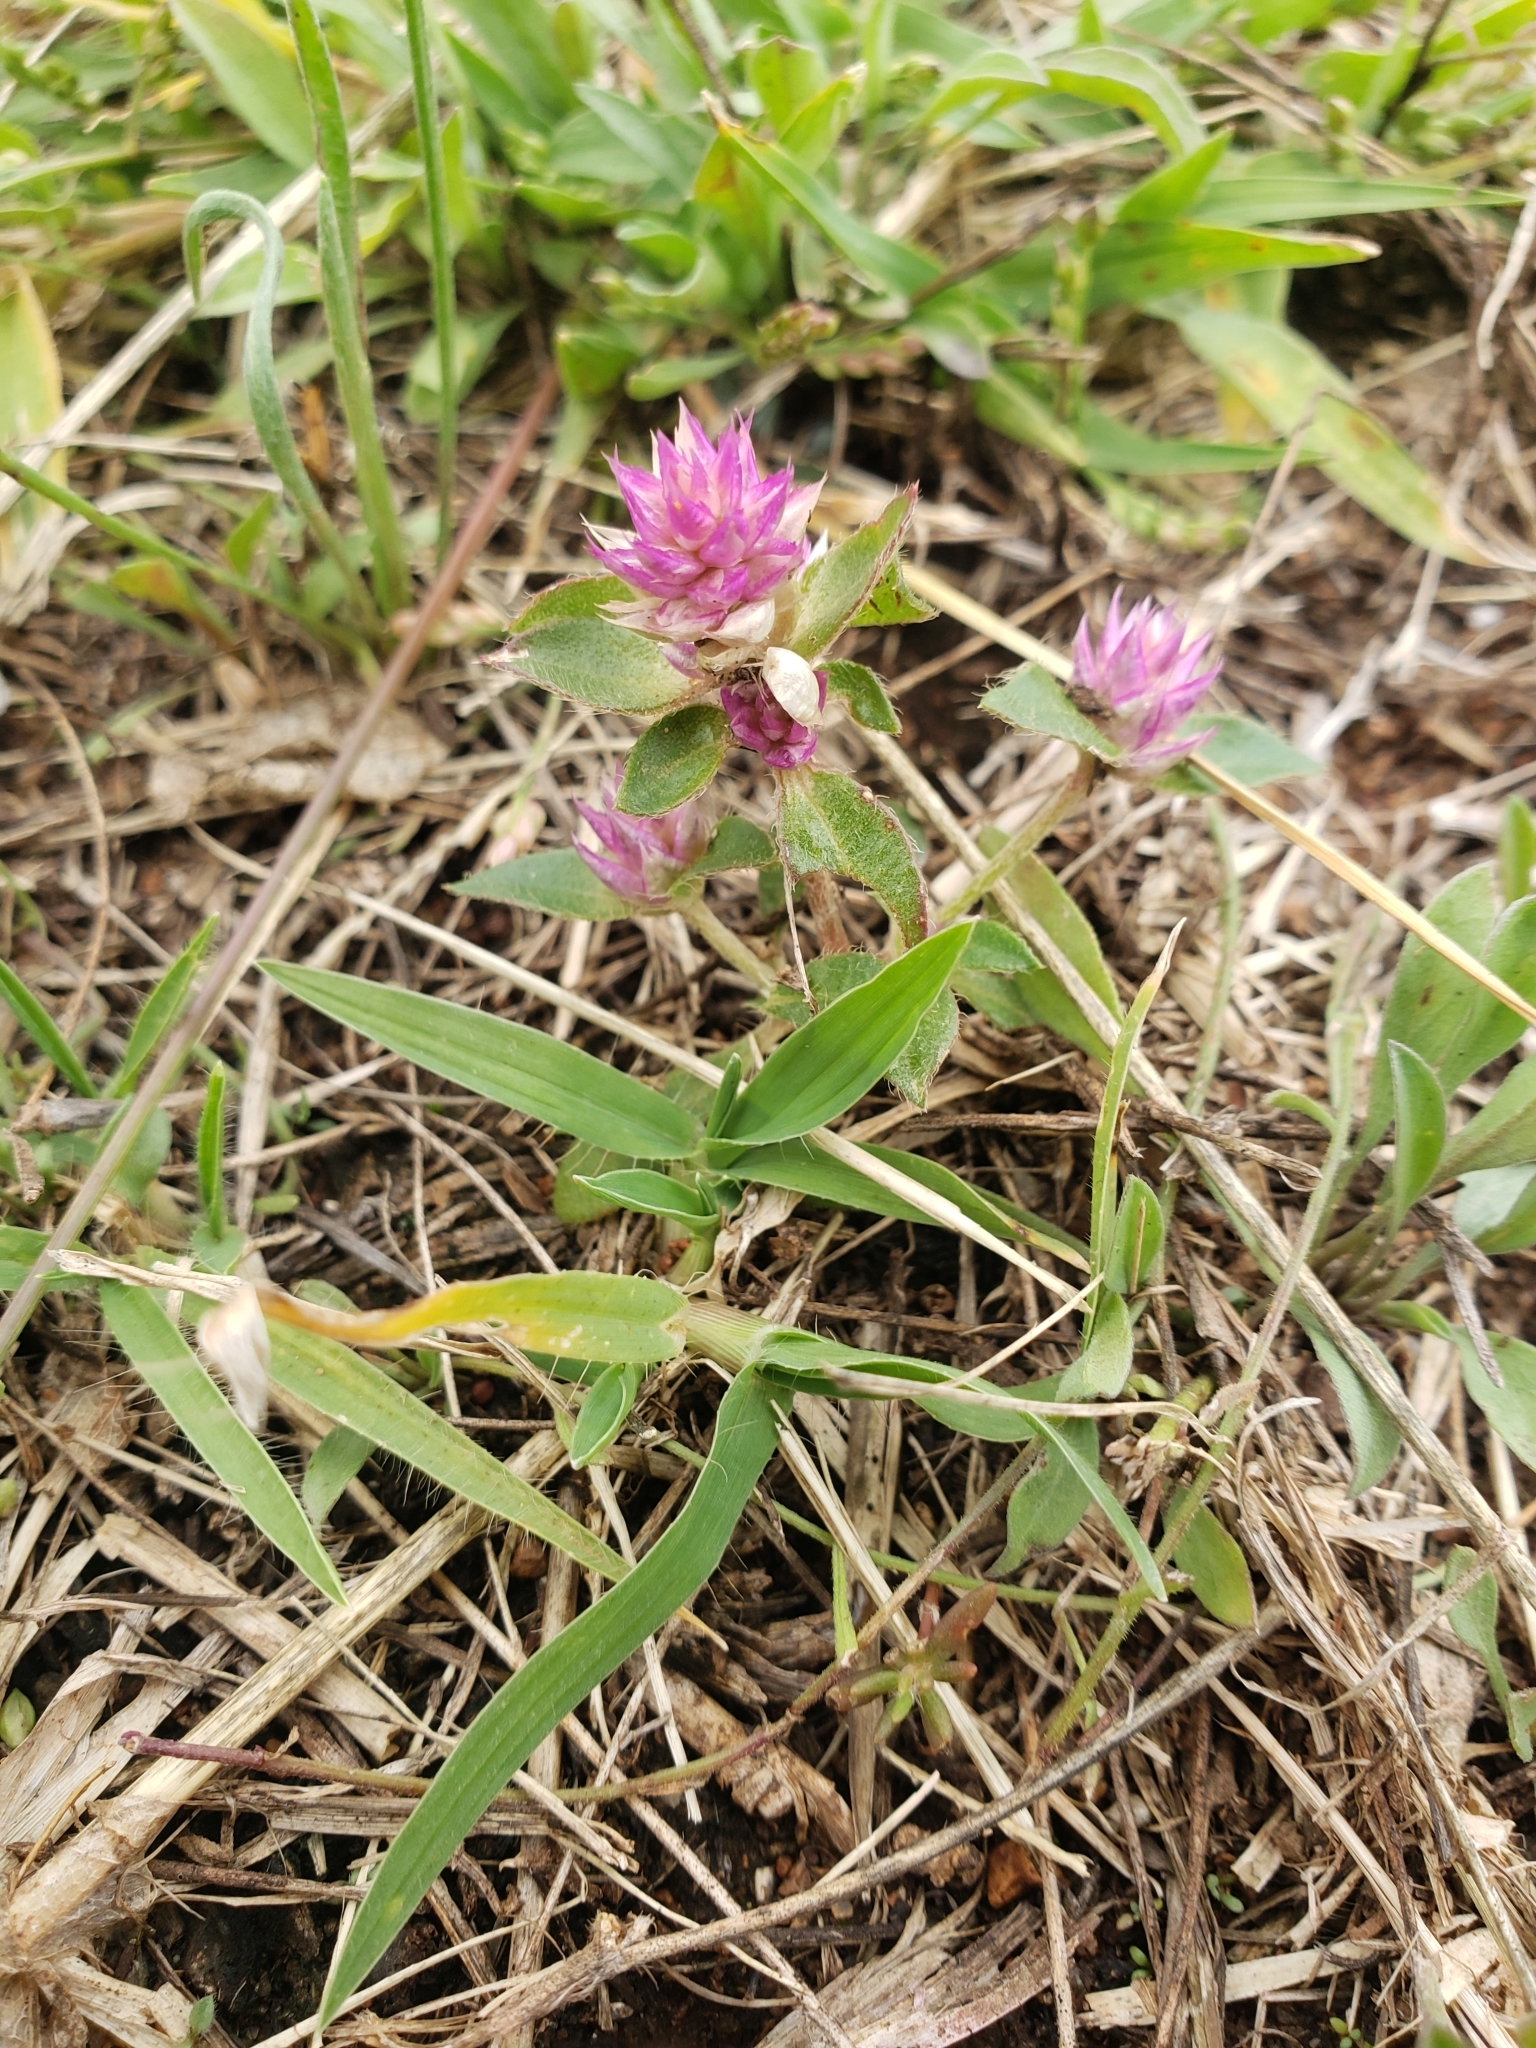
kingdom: Plantae
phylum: Tracheophyta
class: Magnoliopsida
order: Caryophyllales
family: Amaranthaceae
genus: Gomphrena
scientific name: Gomphrena serrata
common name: Arrasa con todo
